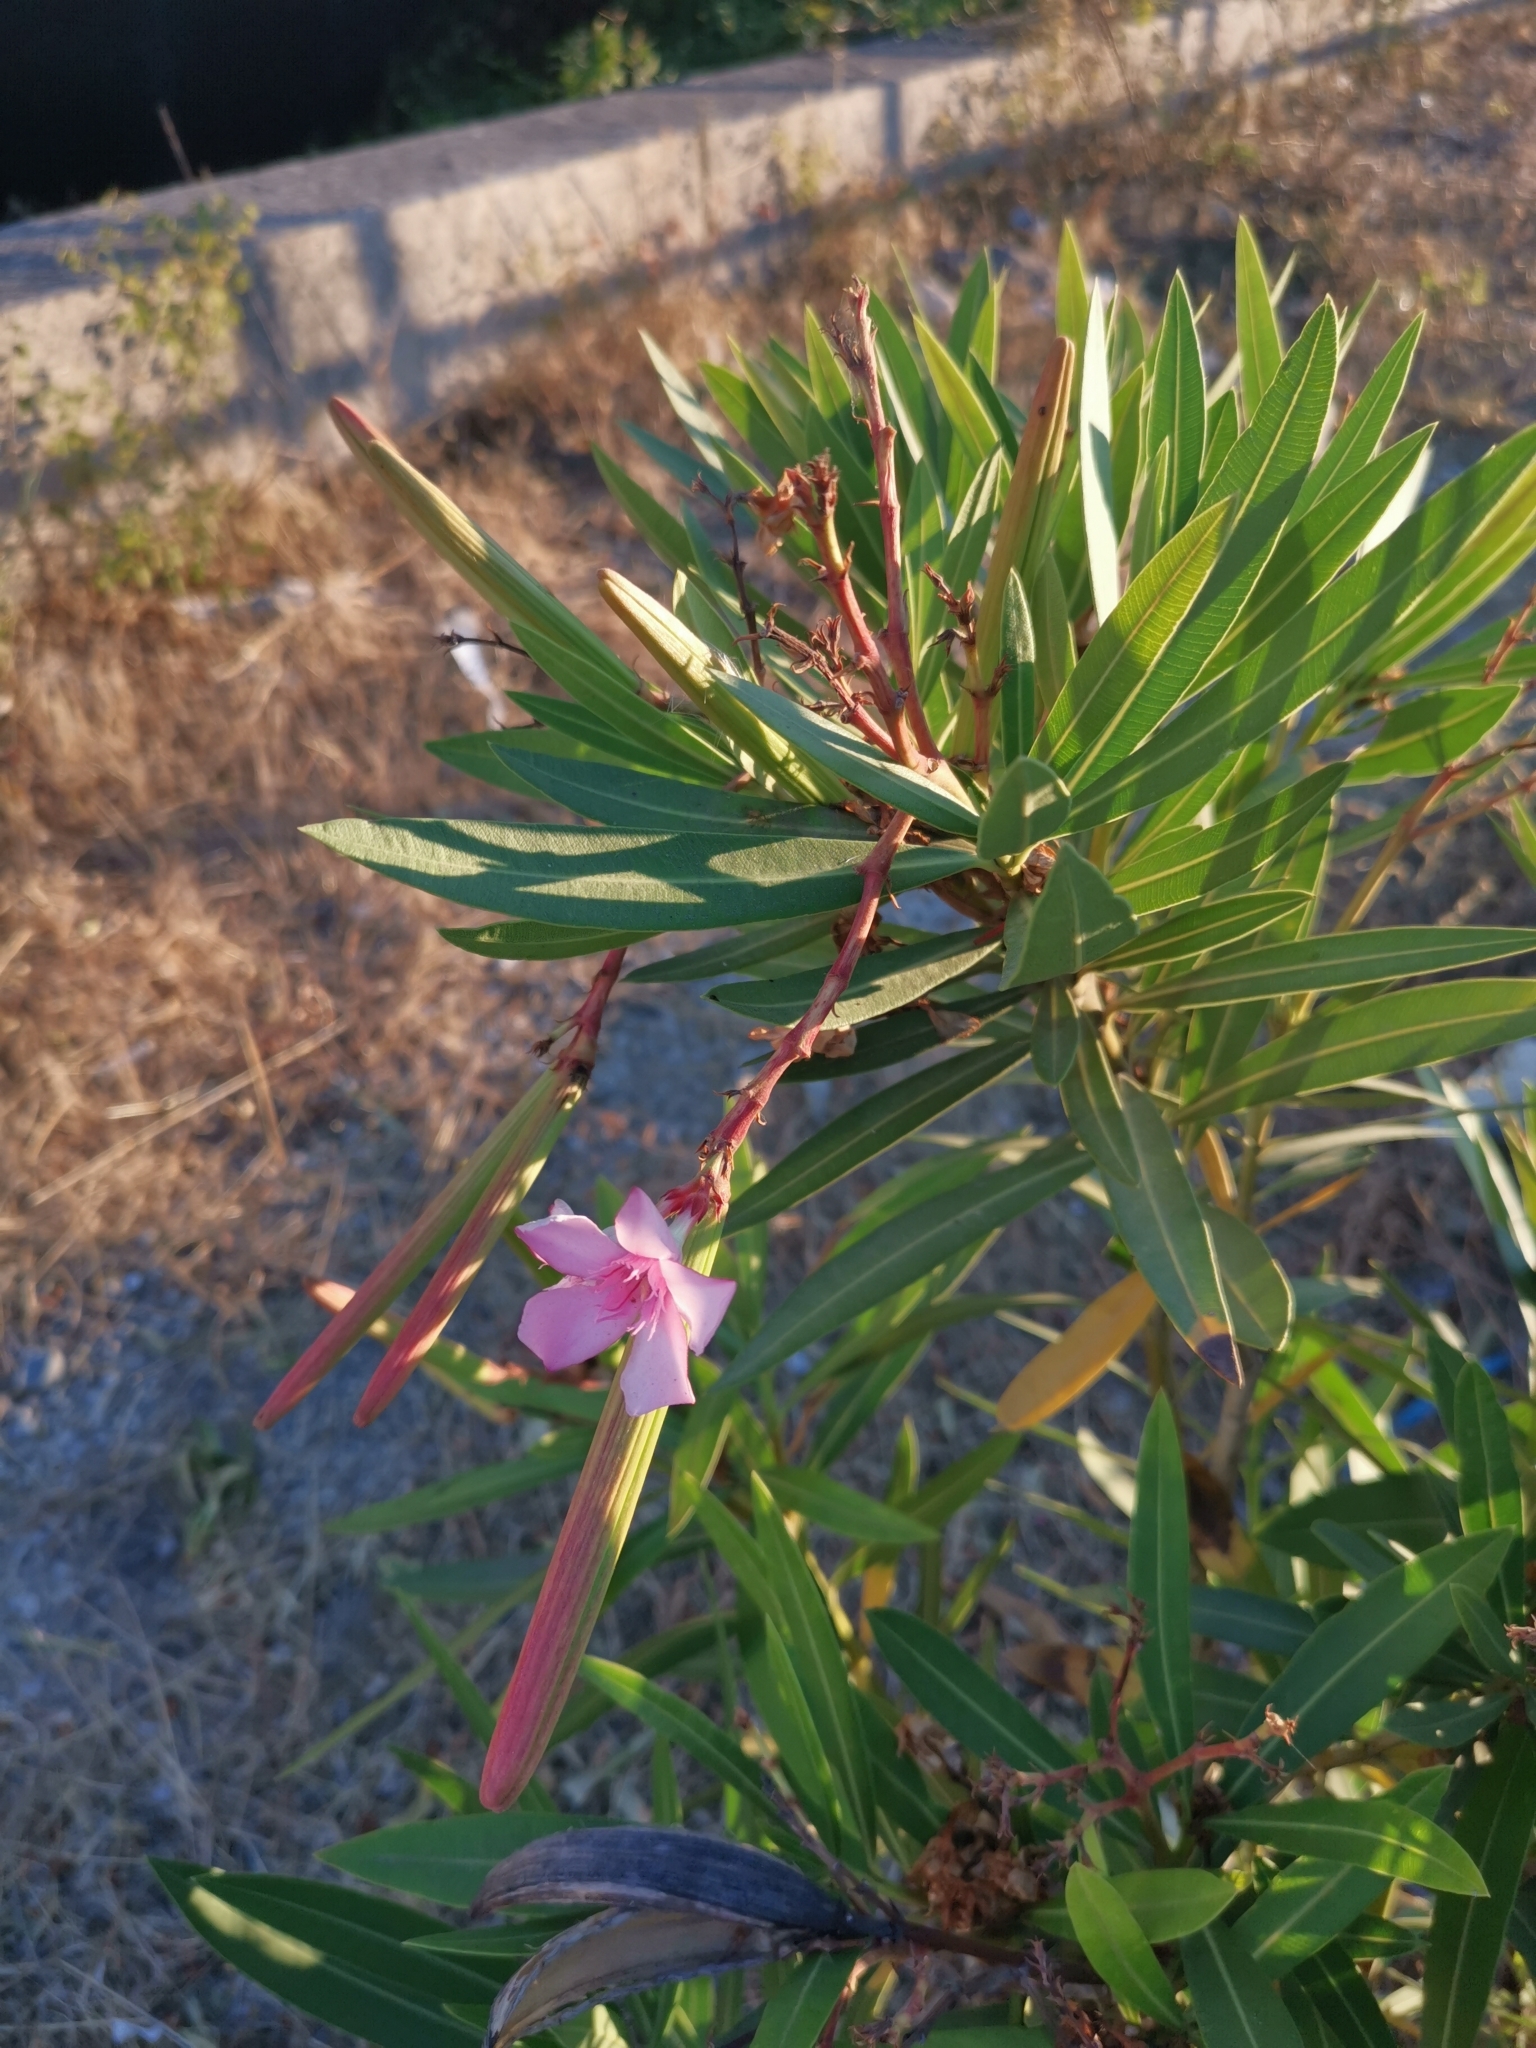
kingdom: Plantae
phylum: Tracheophyta
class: Magnoliopsida
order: Gentianales
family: Apocynaceae
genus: Nerium
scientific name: Nerium oleander
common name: Oleander
